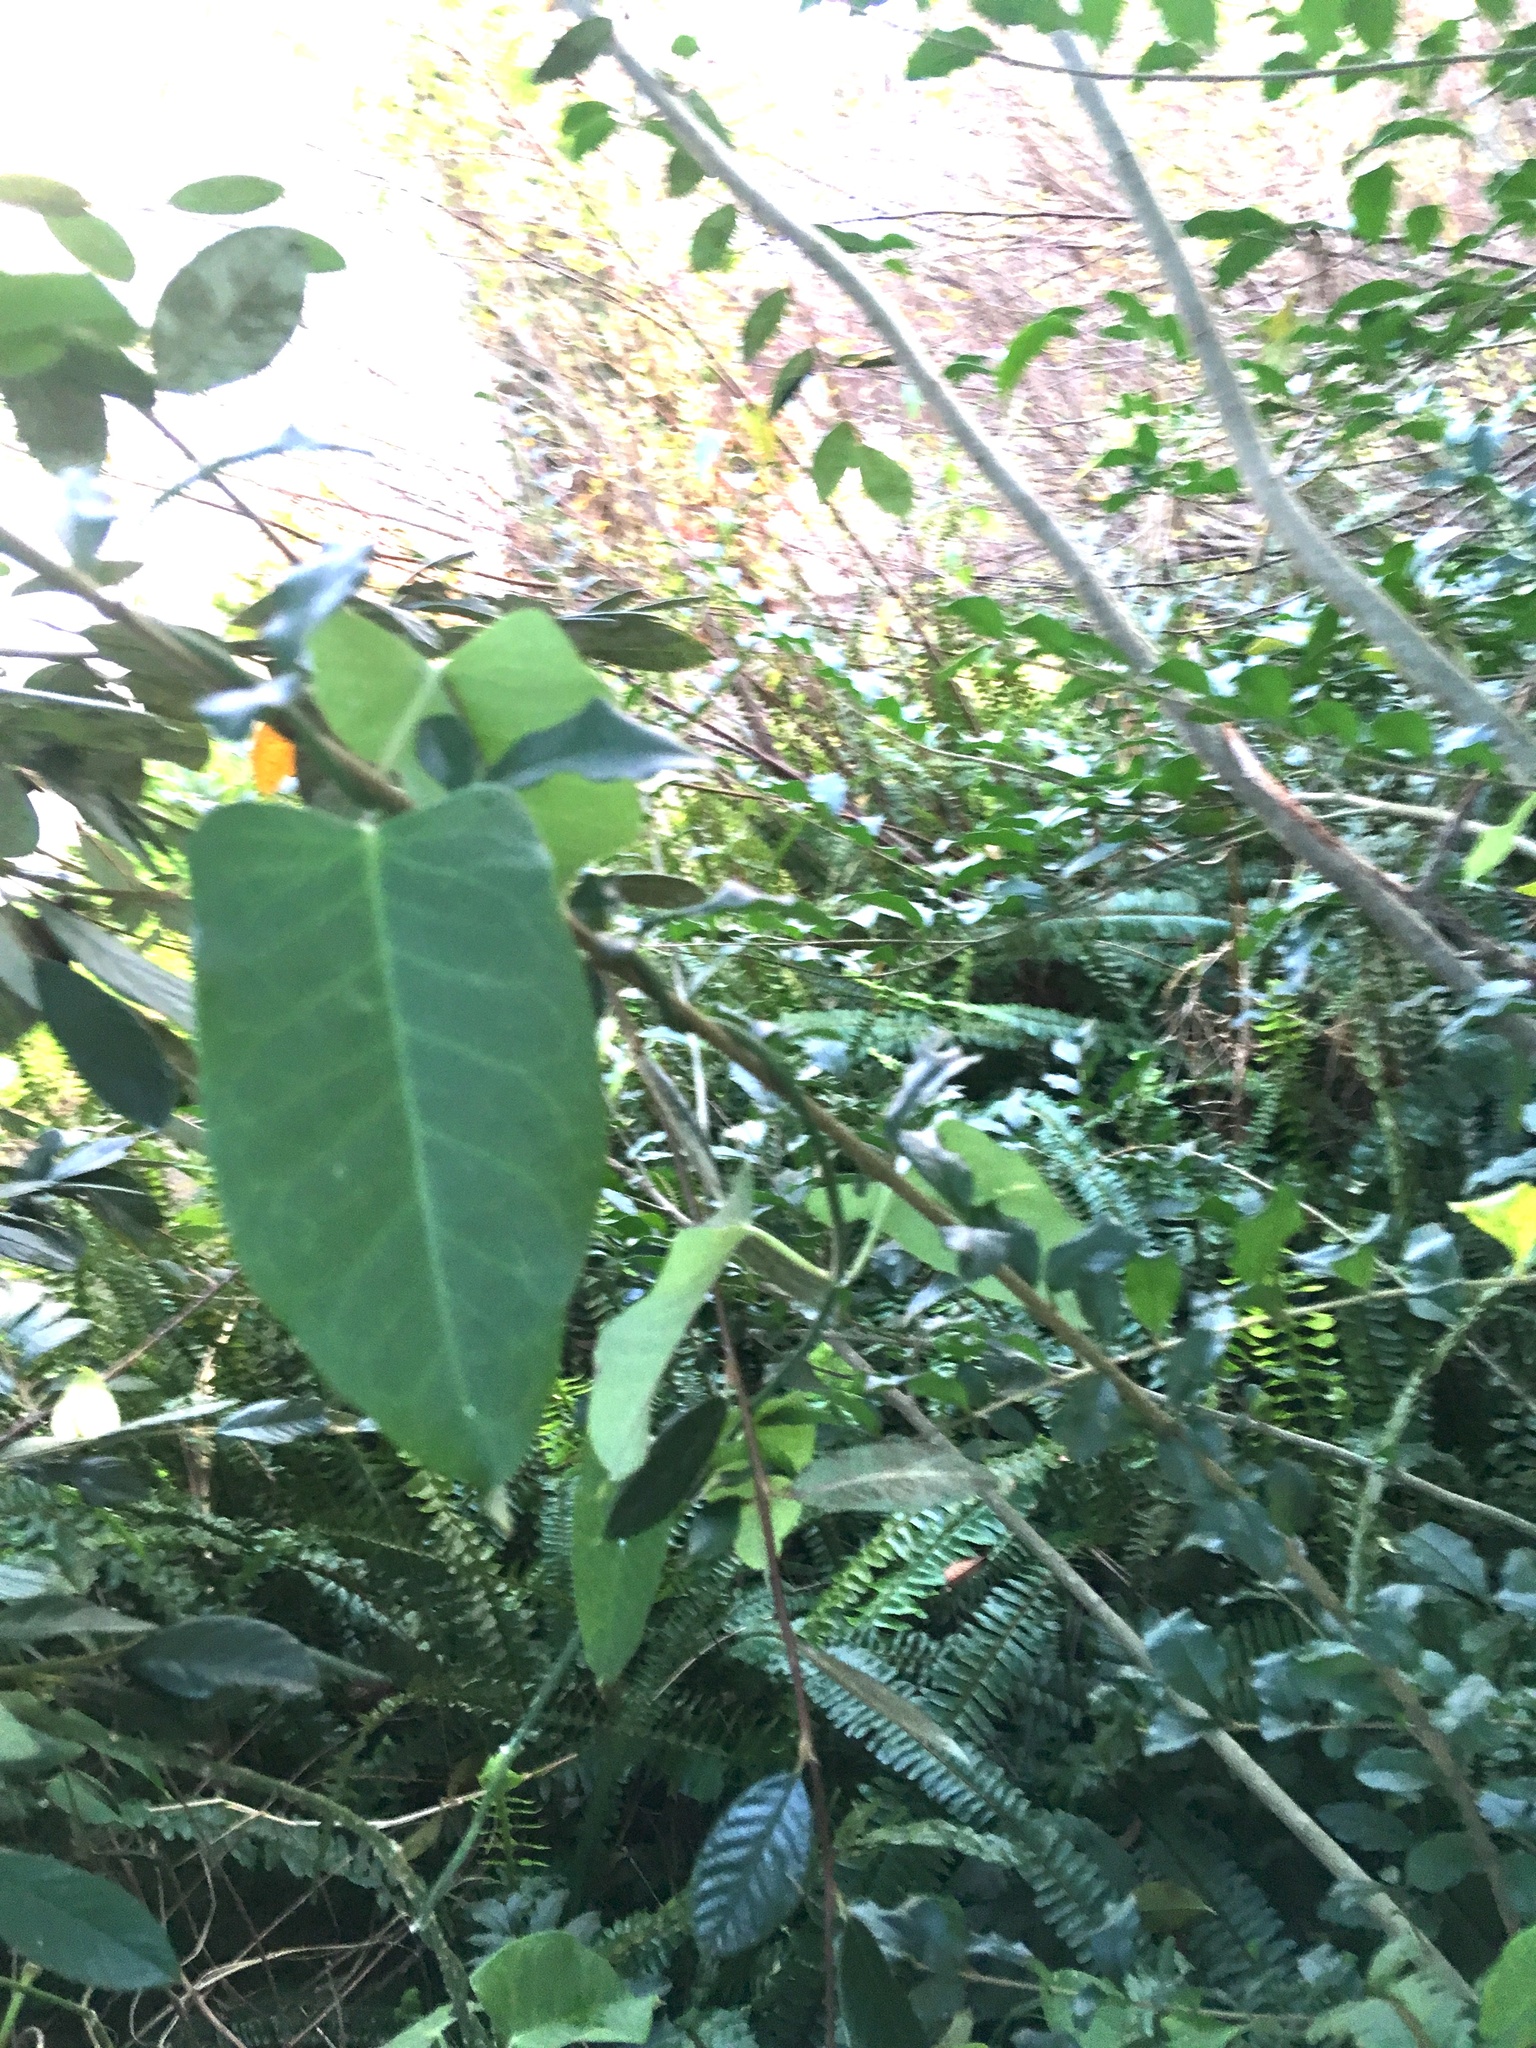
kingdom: Plantae
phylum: Tracheophyta
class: Magnoliopsida
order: Gentianales
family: Apocynaceae
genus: Araujia
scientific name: Araujia sericifera
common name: White bladderflower
